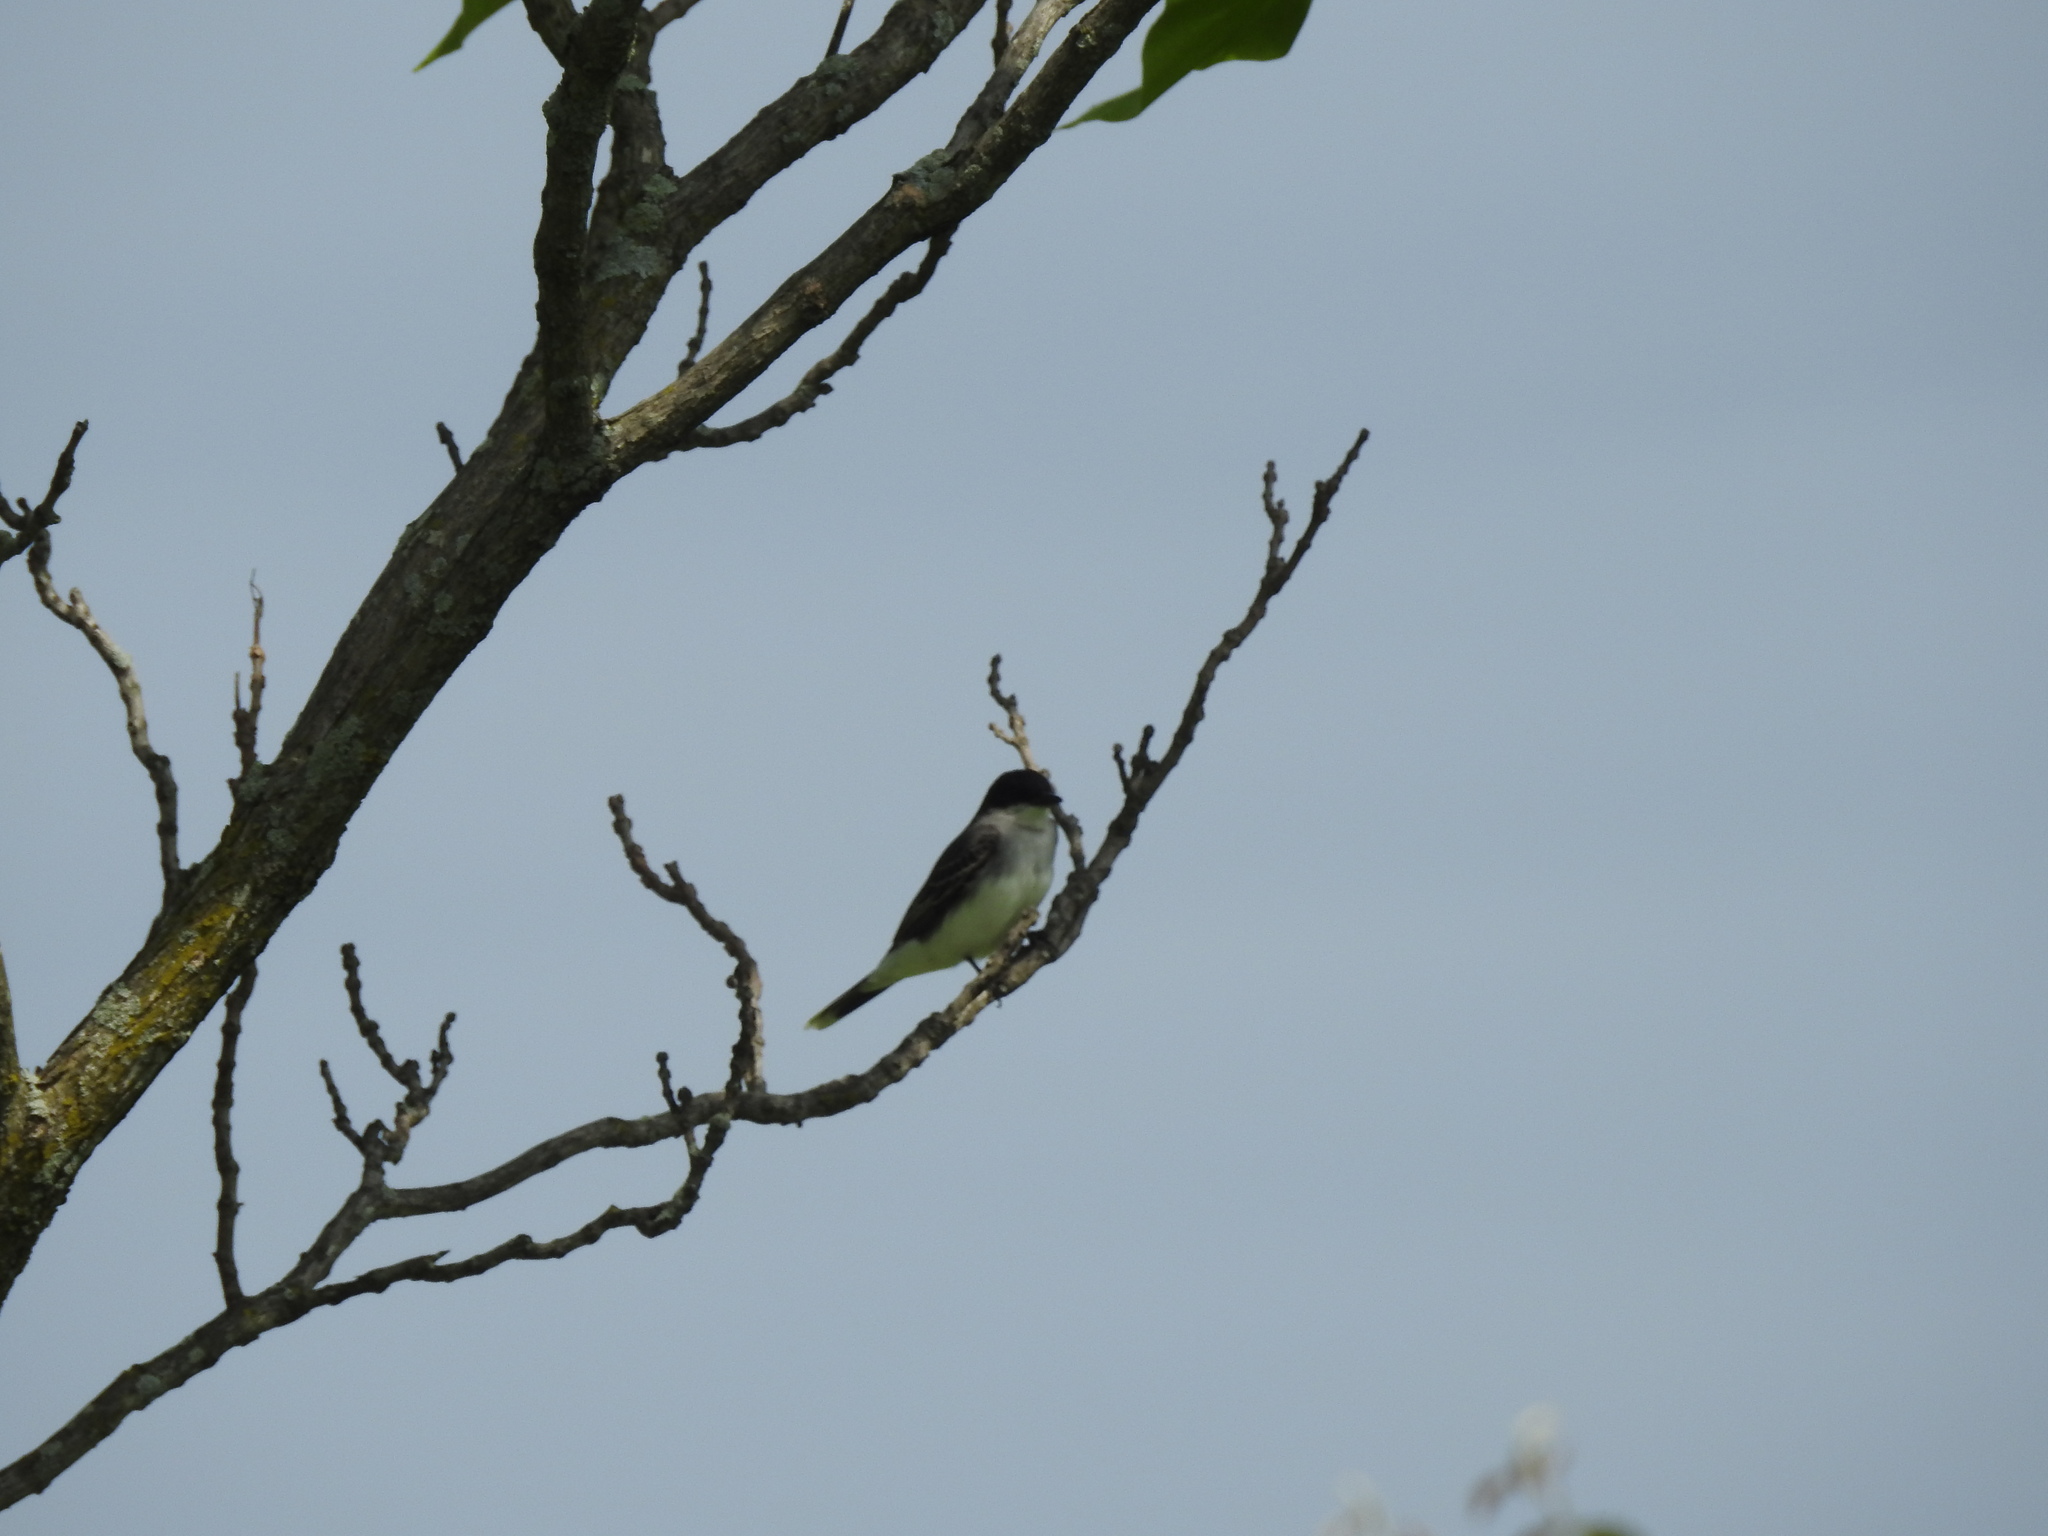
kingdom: Animalia
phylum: Chordata
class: Aves
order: Passeriformes
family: Tyrannidae
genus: Tyrannus
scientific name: Tyrannus tyrannus
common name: Eastern kingbird
